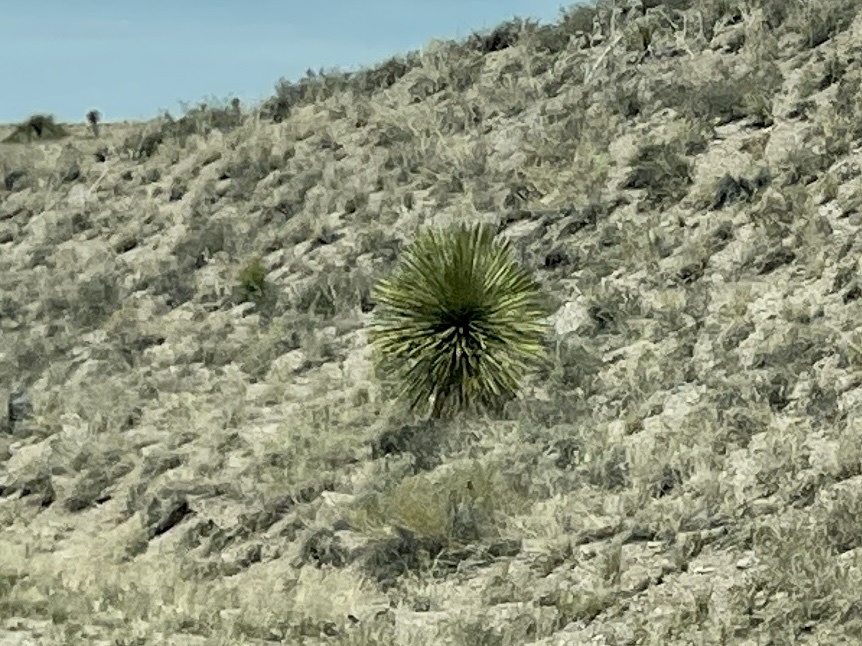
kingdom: Plantae
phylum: Tracheophyta
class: Liliopsida
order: Asparagales
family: Asparagaceae
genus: Yucca
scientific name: Yucca elata
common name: Palmella
